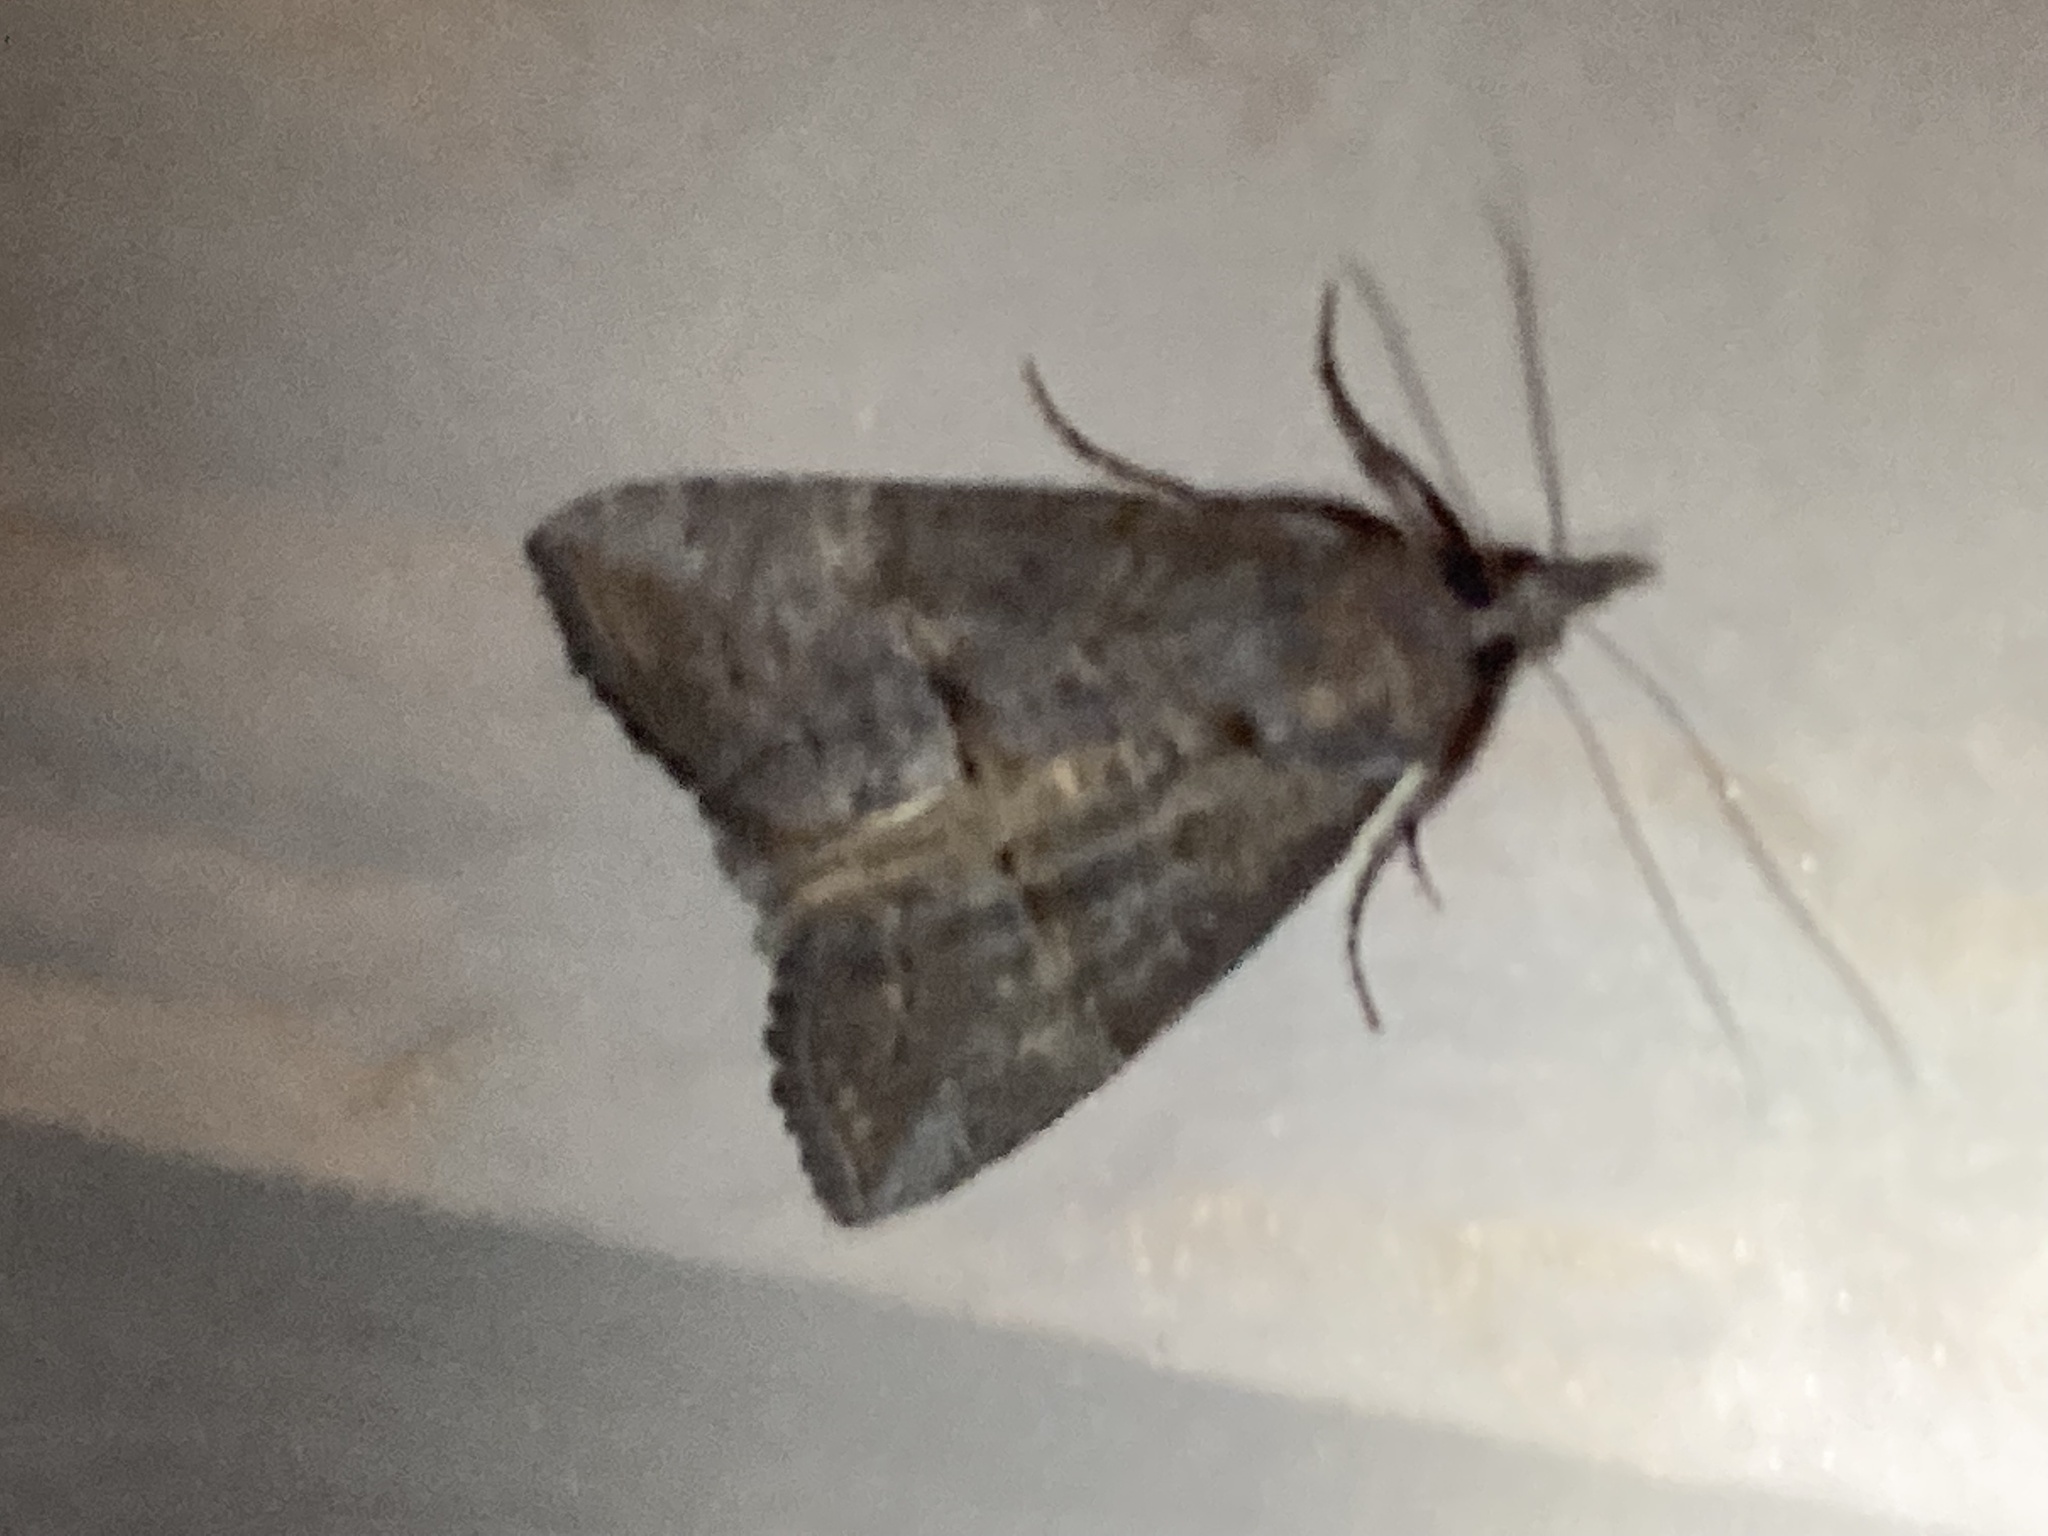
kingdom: Animalia
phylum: Arthropoda
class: Insecta
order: Lepidoptera
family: Erebidae
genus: Hypena
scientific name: Hypena scabra
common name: Green cloverworm
